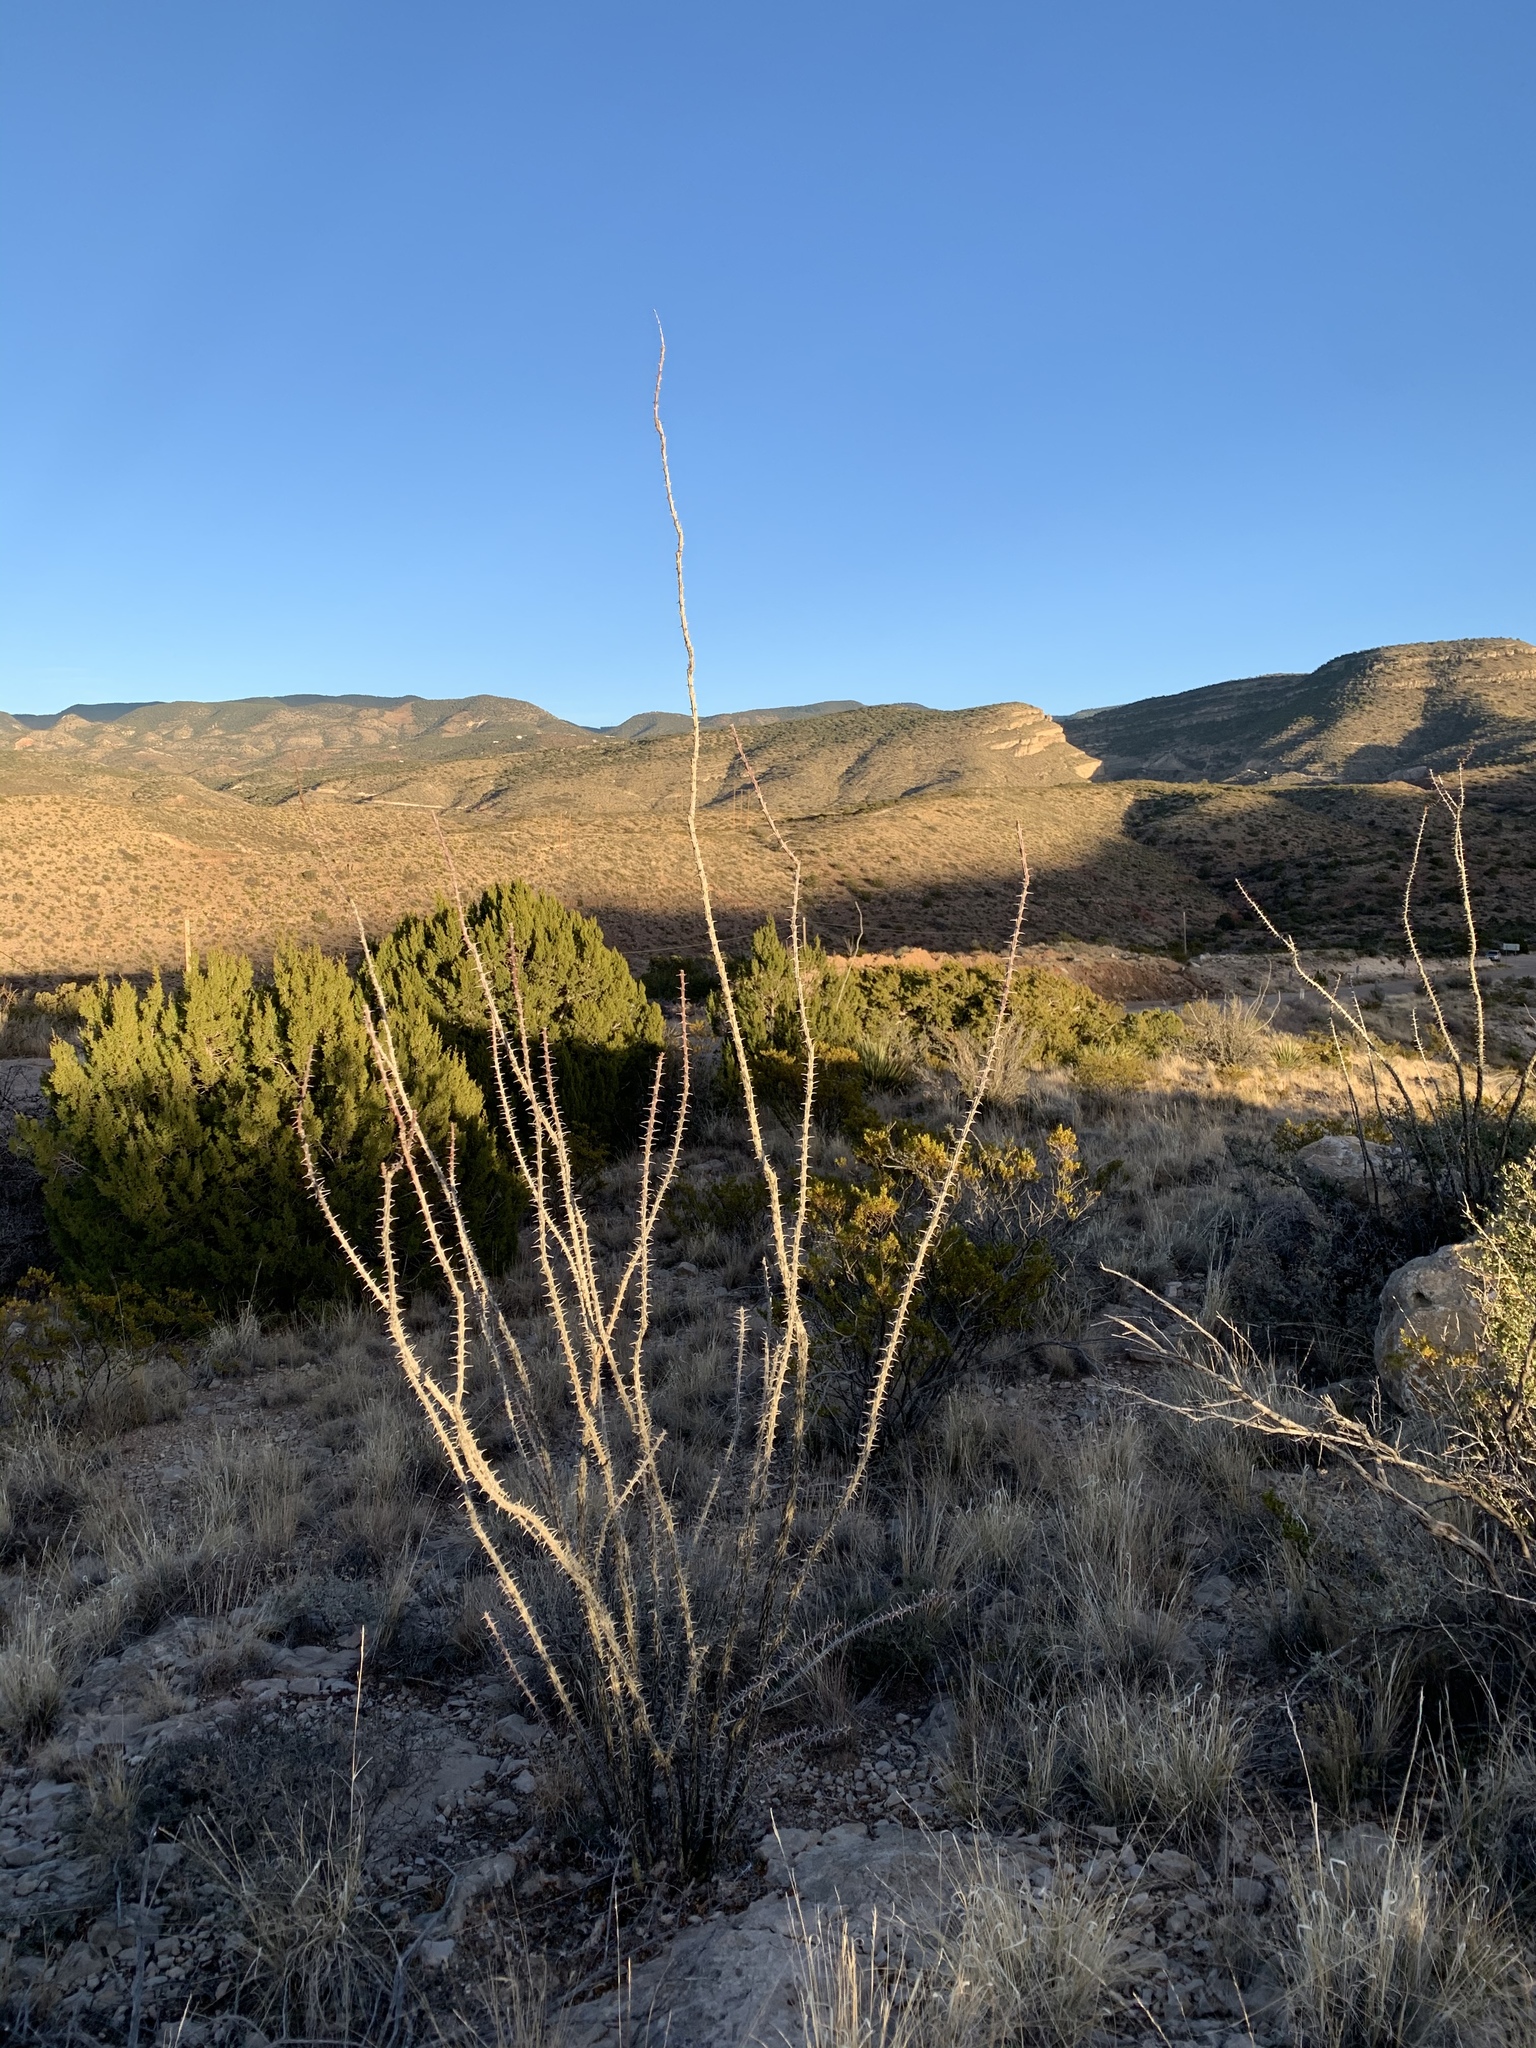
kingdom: Plantae
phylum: Tracheophyta
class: Magnoliopsida
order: Ericales
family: Fouquieriaceae
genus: Fouquieria
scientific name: Fouquieria splendens
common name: Vine-cactus
